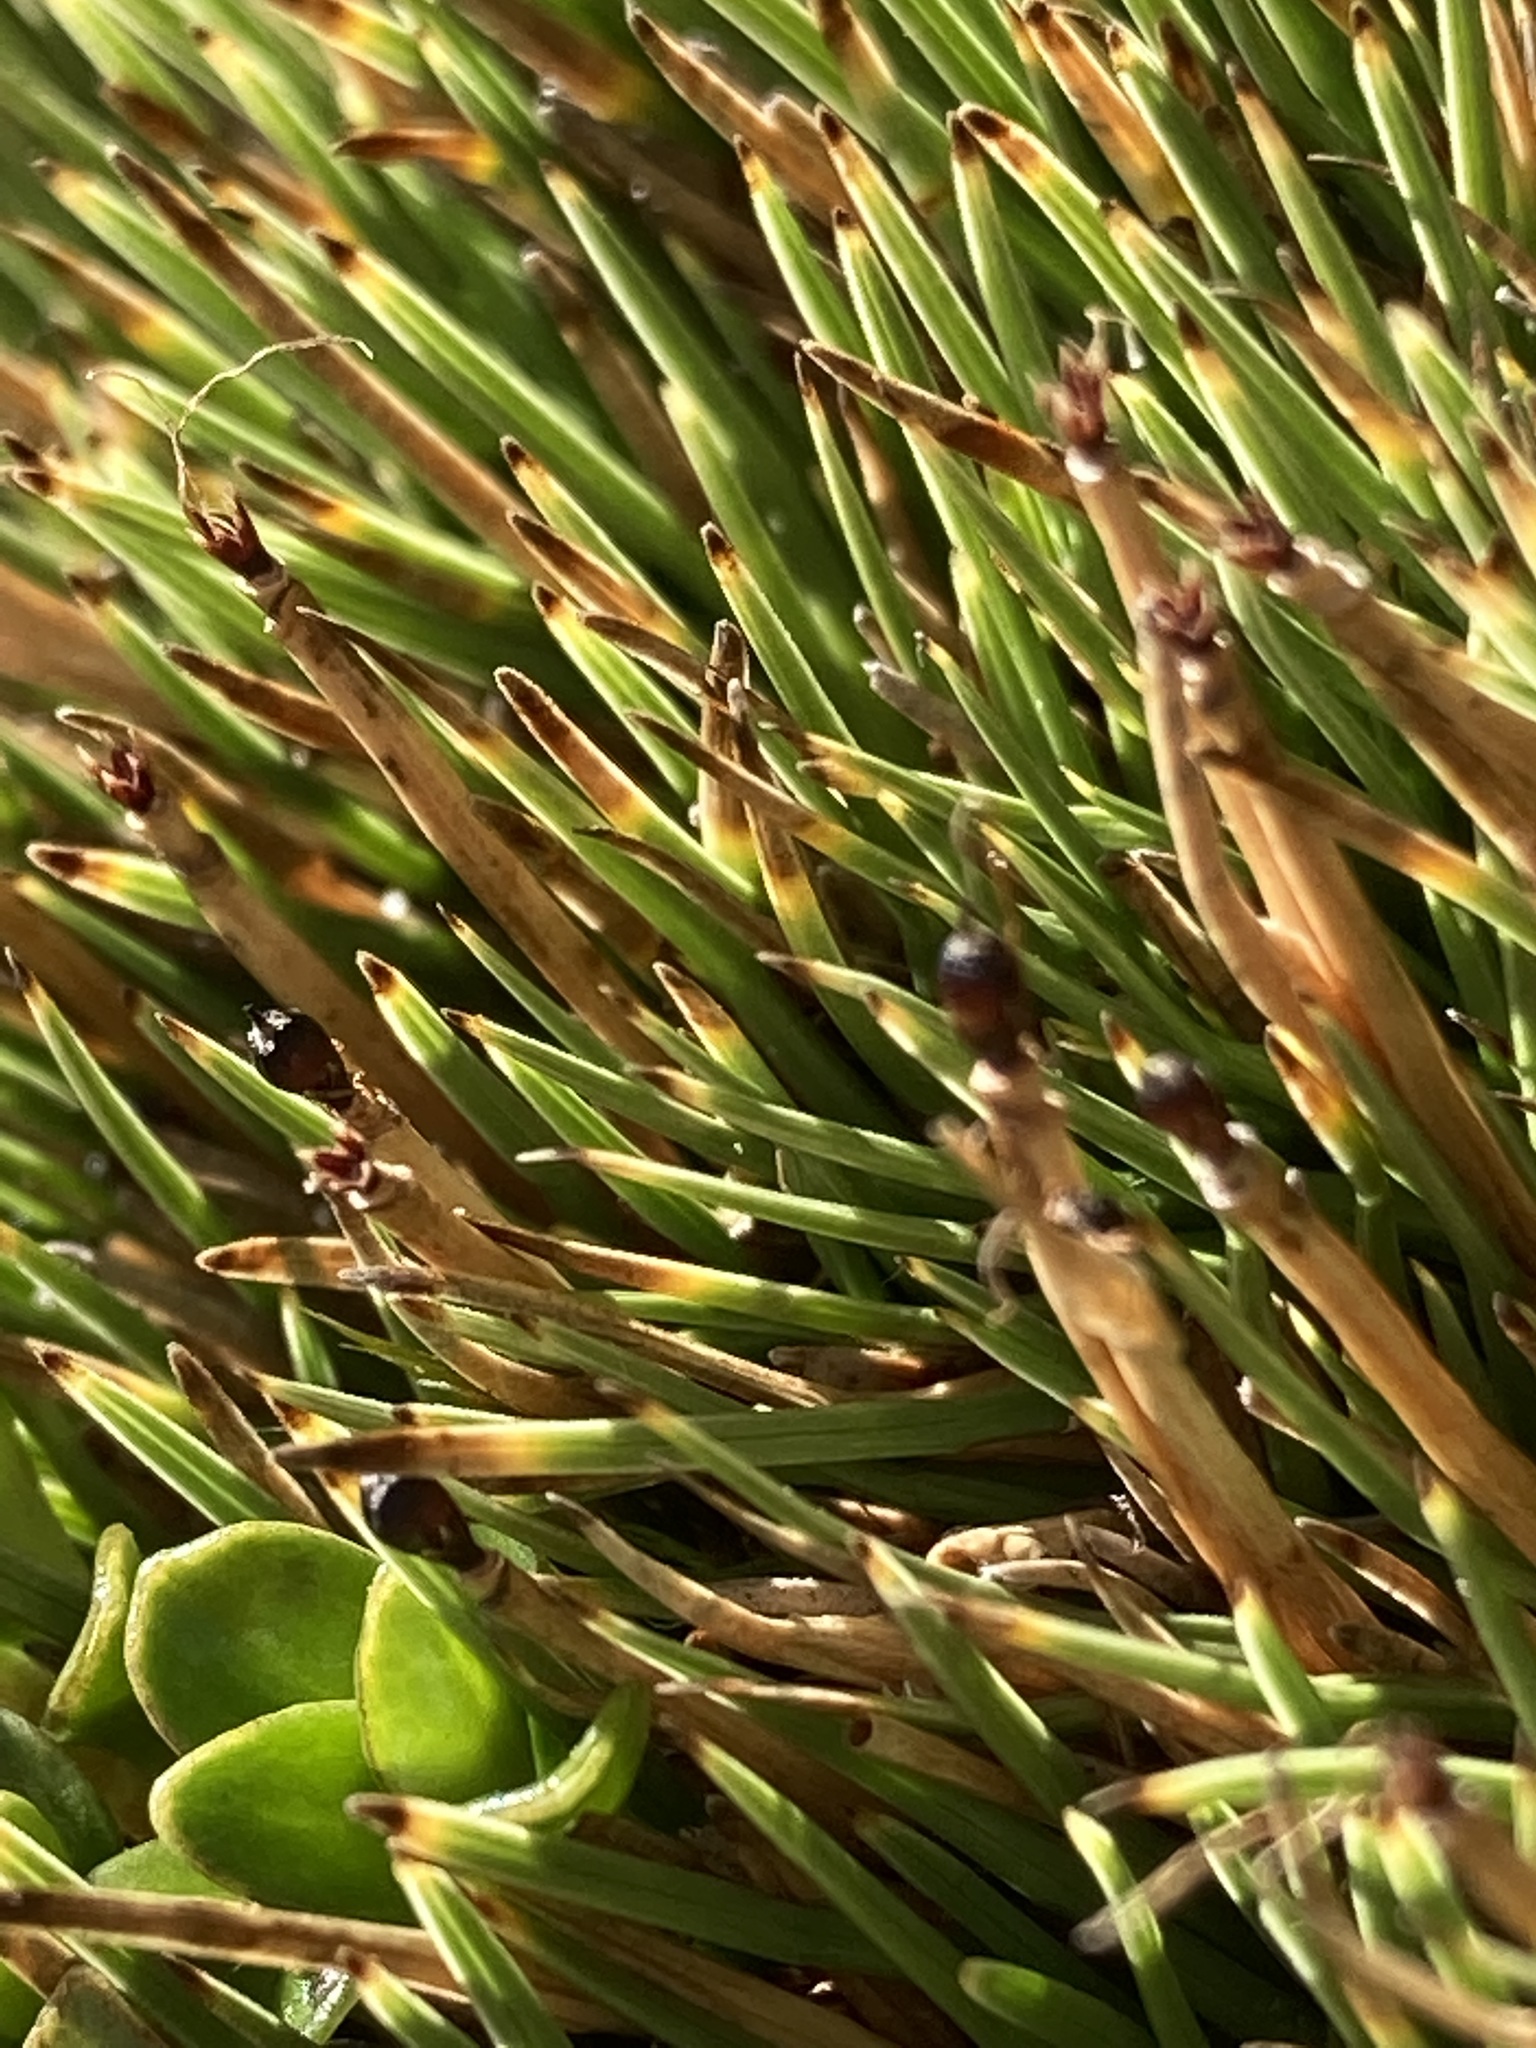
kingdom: Plantae
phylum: Tracheophyta
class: Liliopsida
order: Poales
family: Cyperaceae
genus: Oreobolus
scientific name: Oreobolus pectinatus
